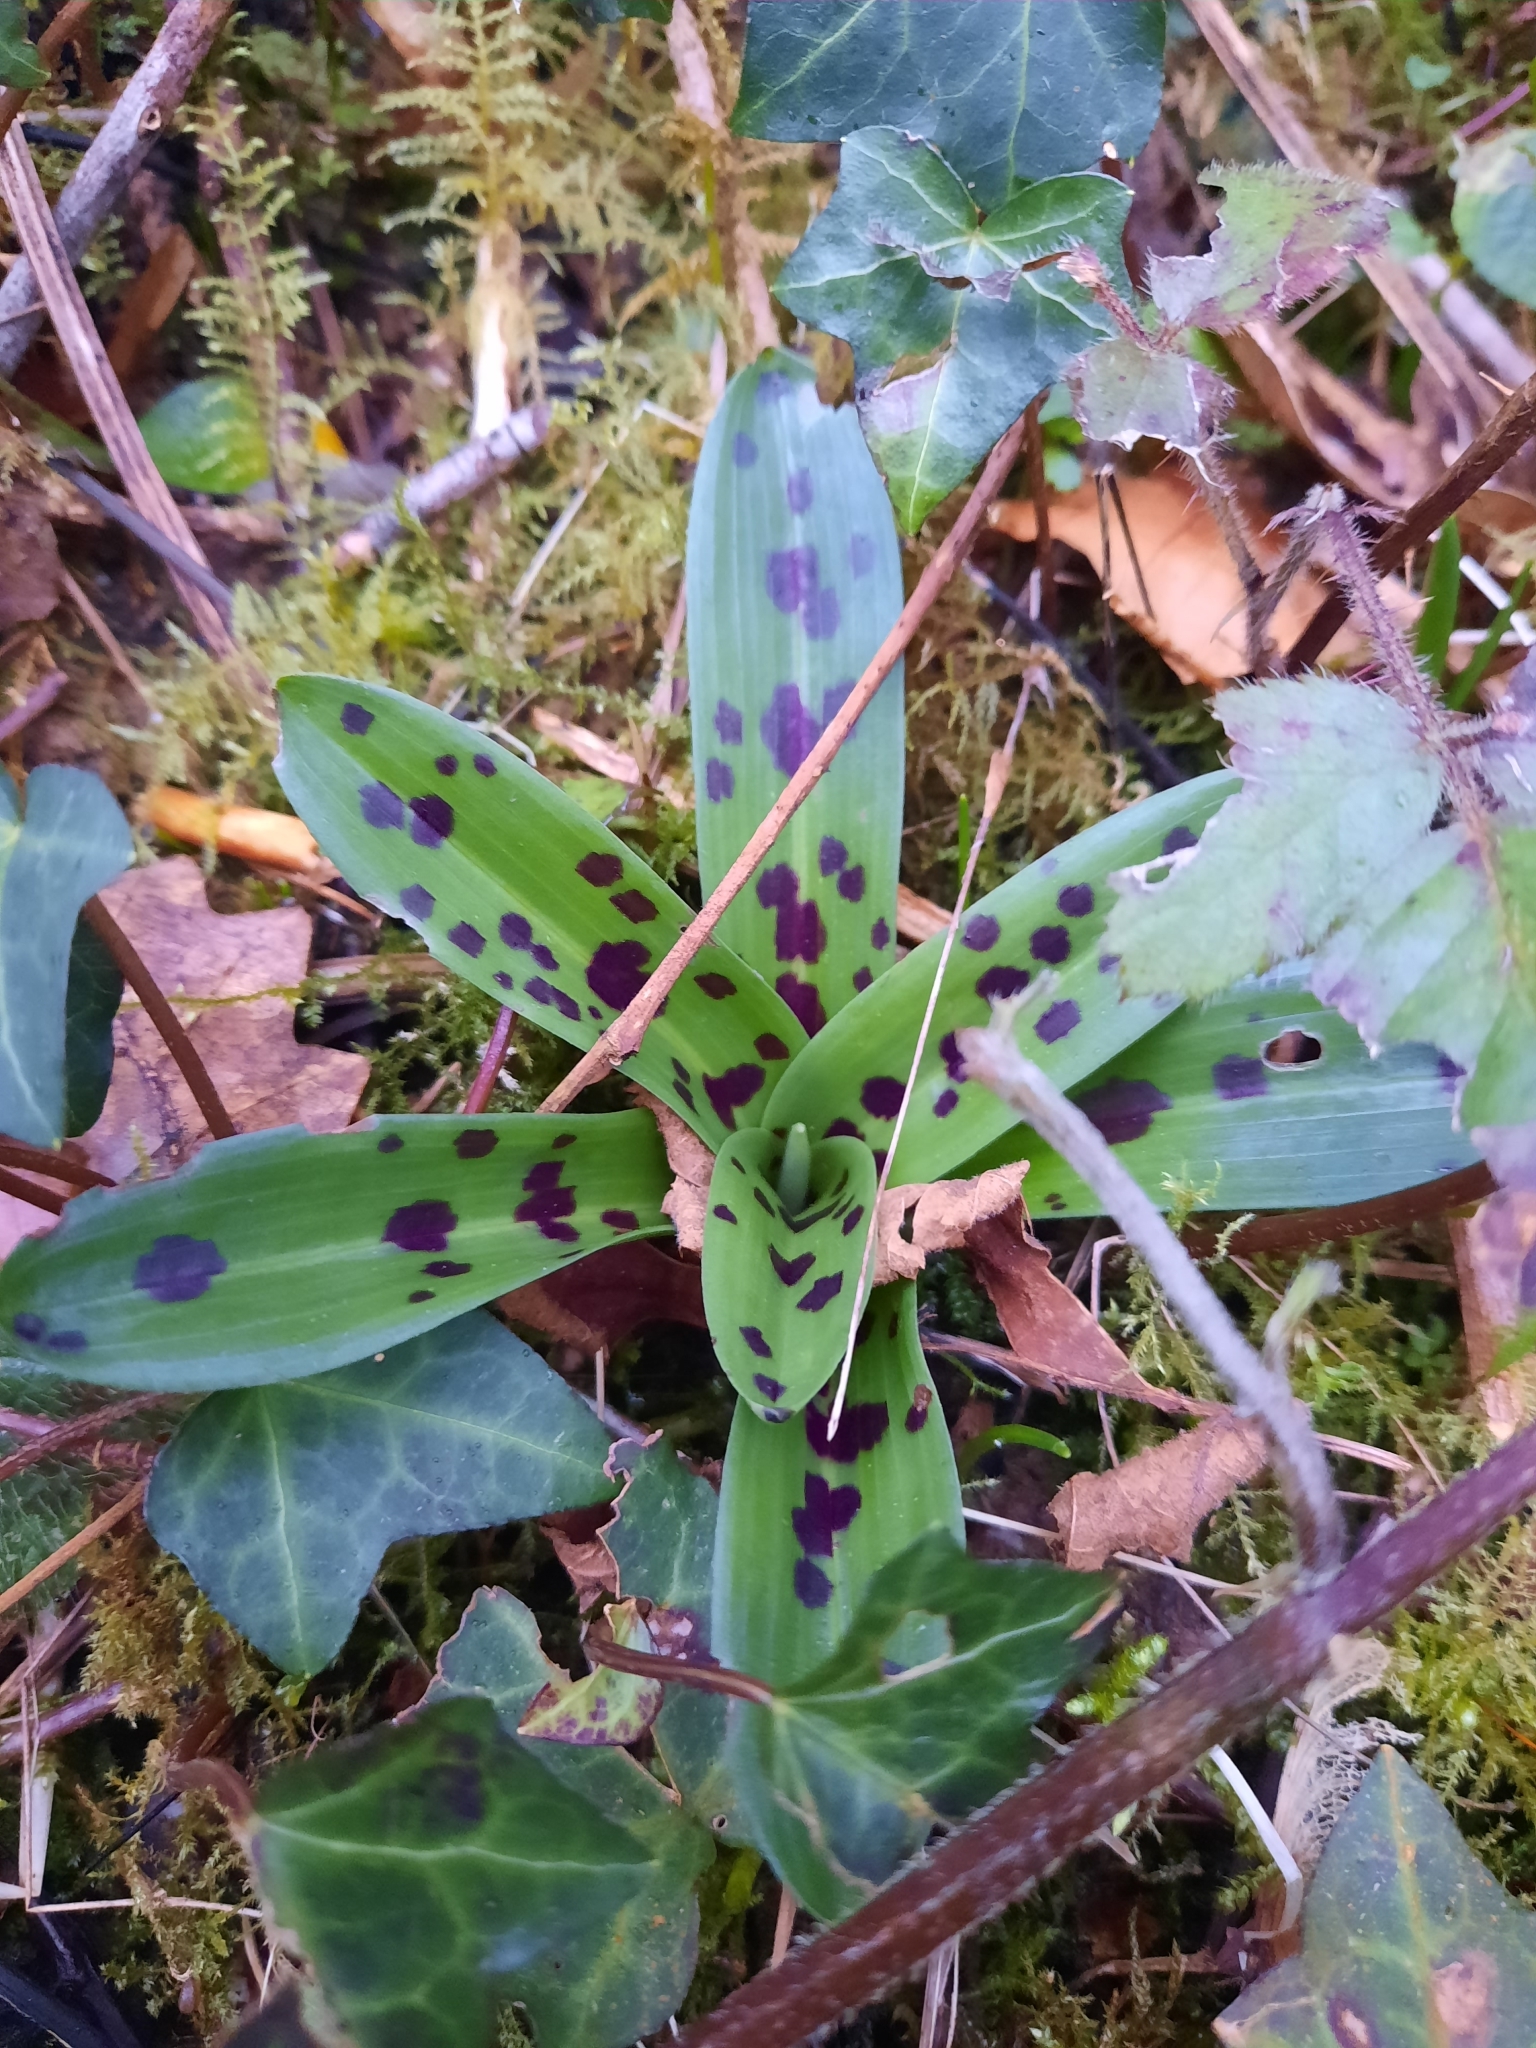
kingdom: Plantae
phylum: Tracheophyta
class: Liliopsida
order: Asparagales
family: Orchidaceae
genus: Orchis
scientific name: Orchis mascula
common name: Early-purple orchid
